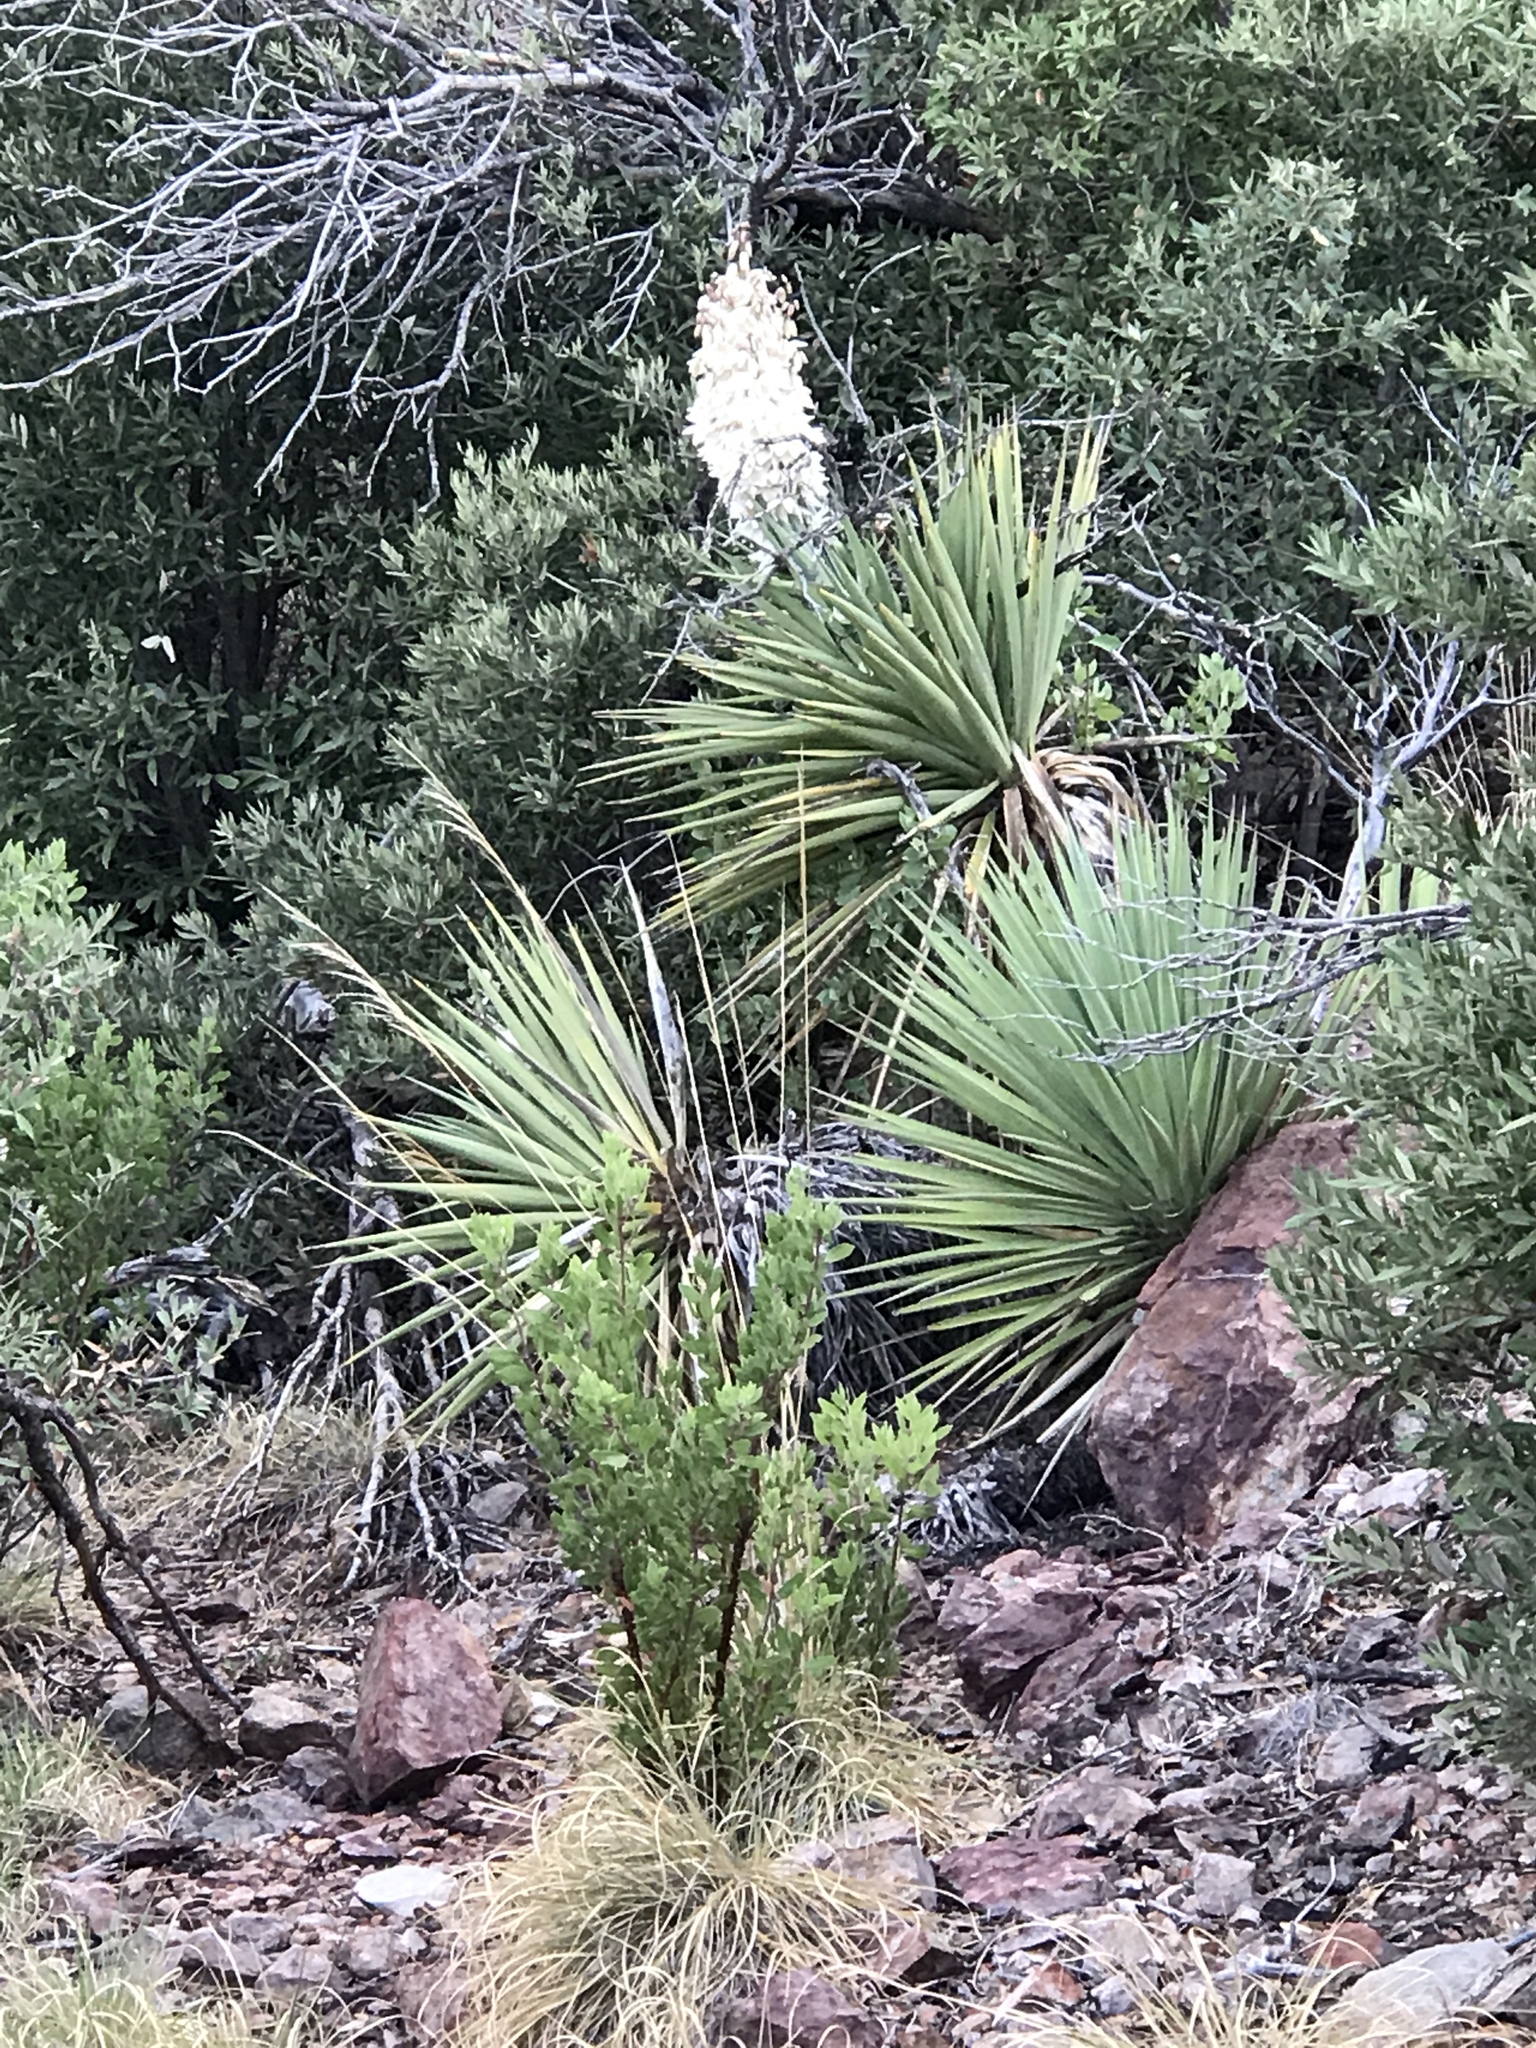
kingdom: Plantae
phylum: Tracheophyta
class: Liliopsida
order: Asparagales
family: Asparagaceae
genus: Yucca
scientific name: Yucca schottii
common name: Hoary yucca
